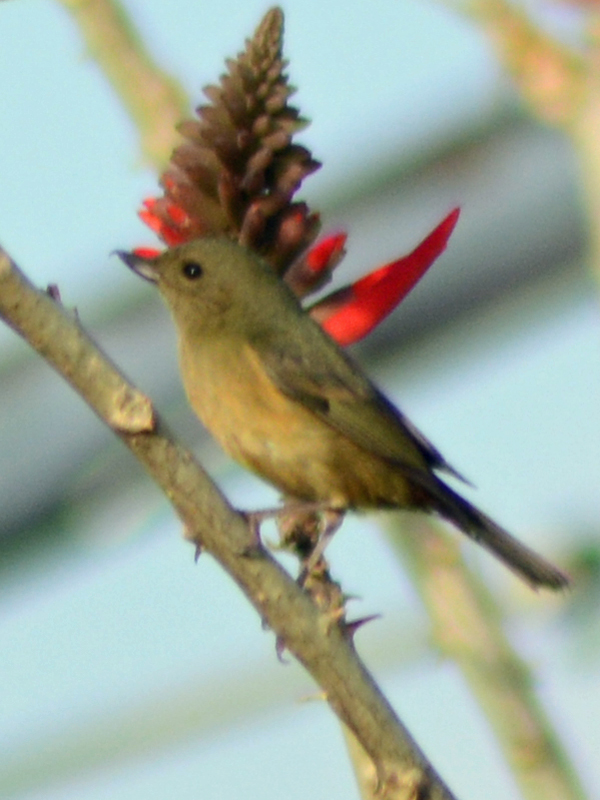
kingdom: Animalia
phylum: Chordata
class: Aves
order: Passeriformes
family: Thraupidae
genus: Diglossa
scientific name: Diglossa baritula
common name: Cinnamon-bellied flowerpiercer
